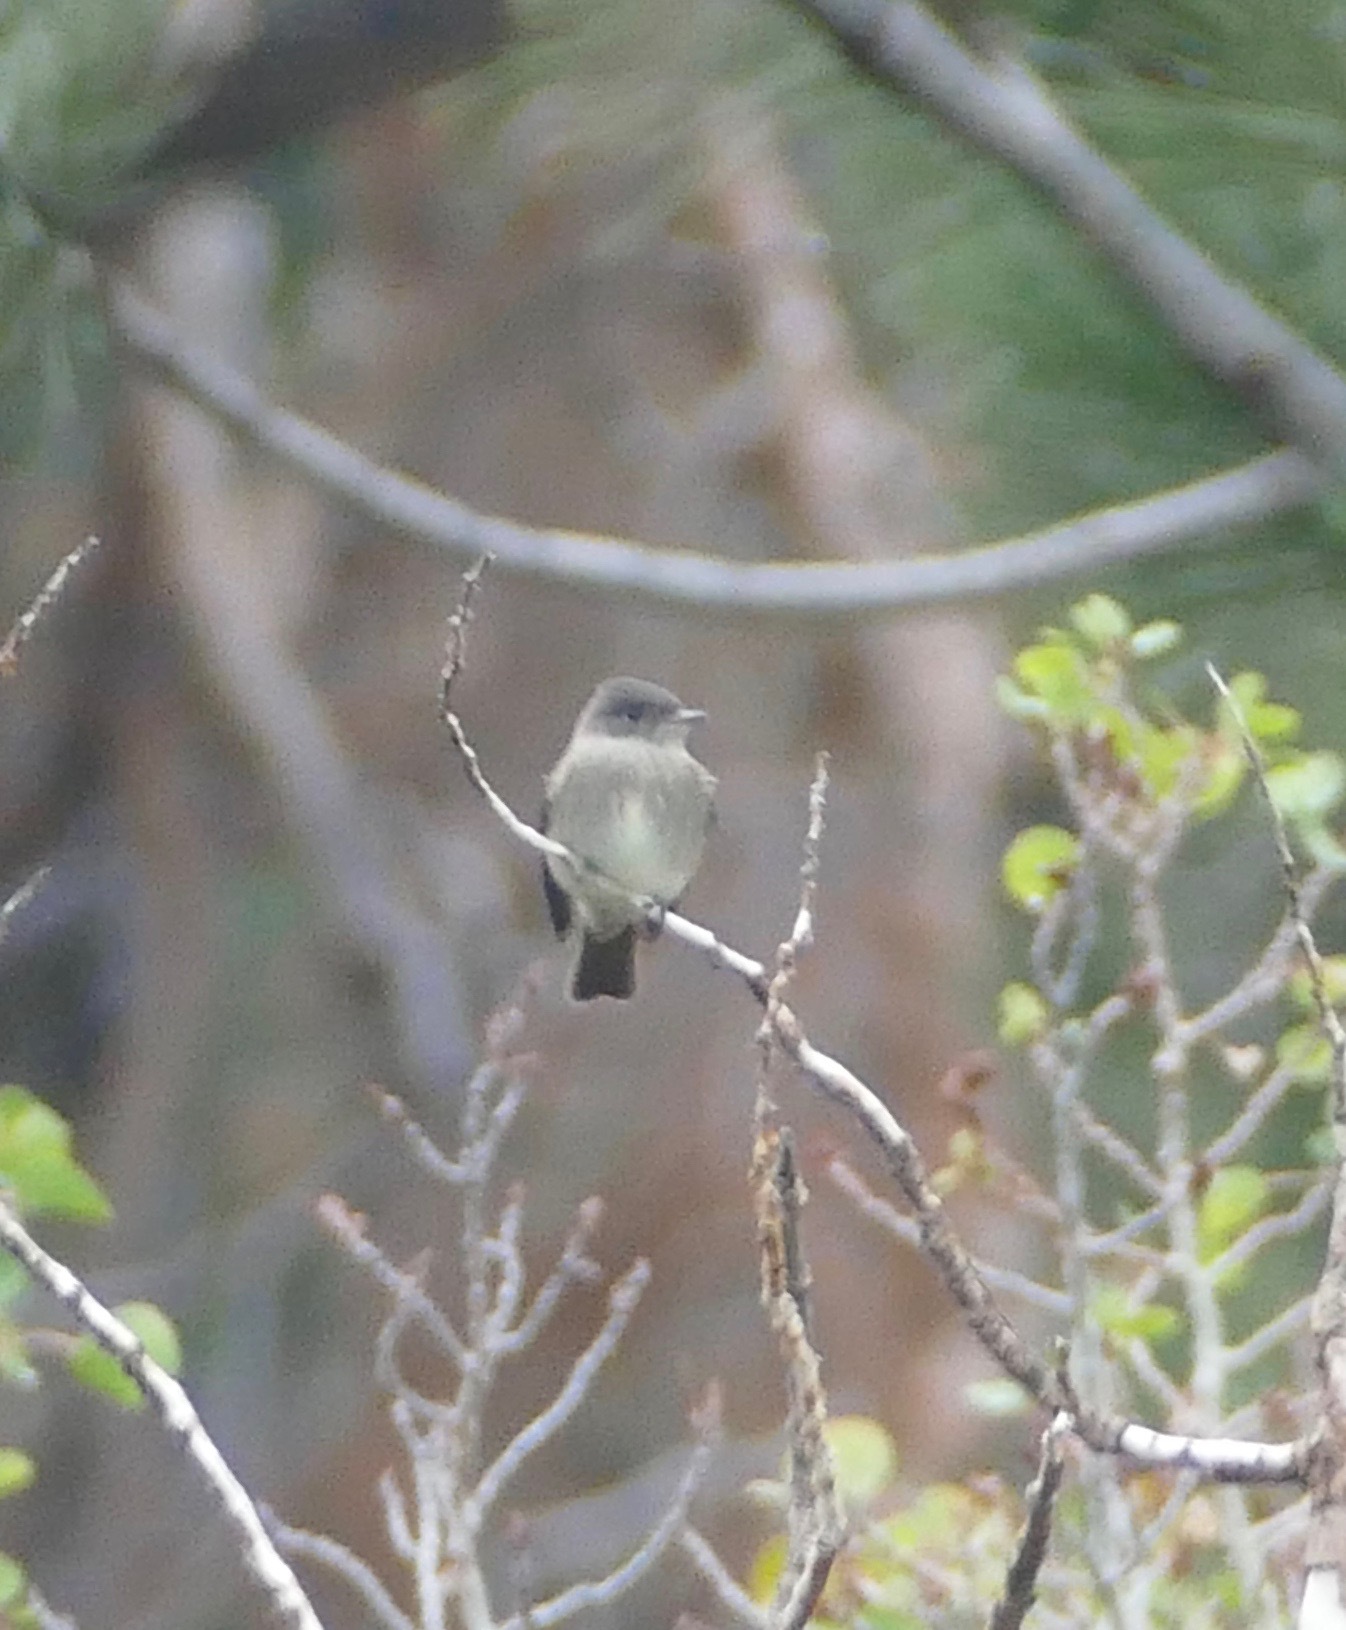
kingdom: Animalia
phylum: Chordata
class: Aves
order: Passeriformes
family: Tyrannidae
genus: Contopus
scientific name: Contopus sordidulus
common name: Western wood-pewee
